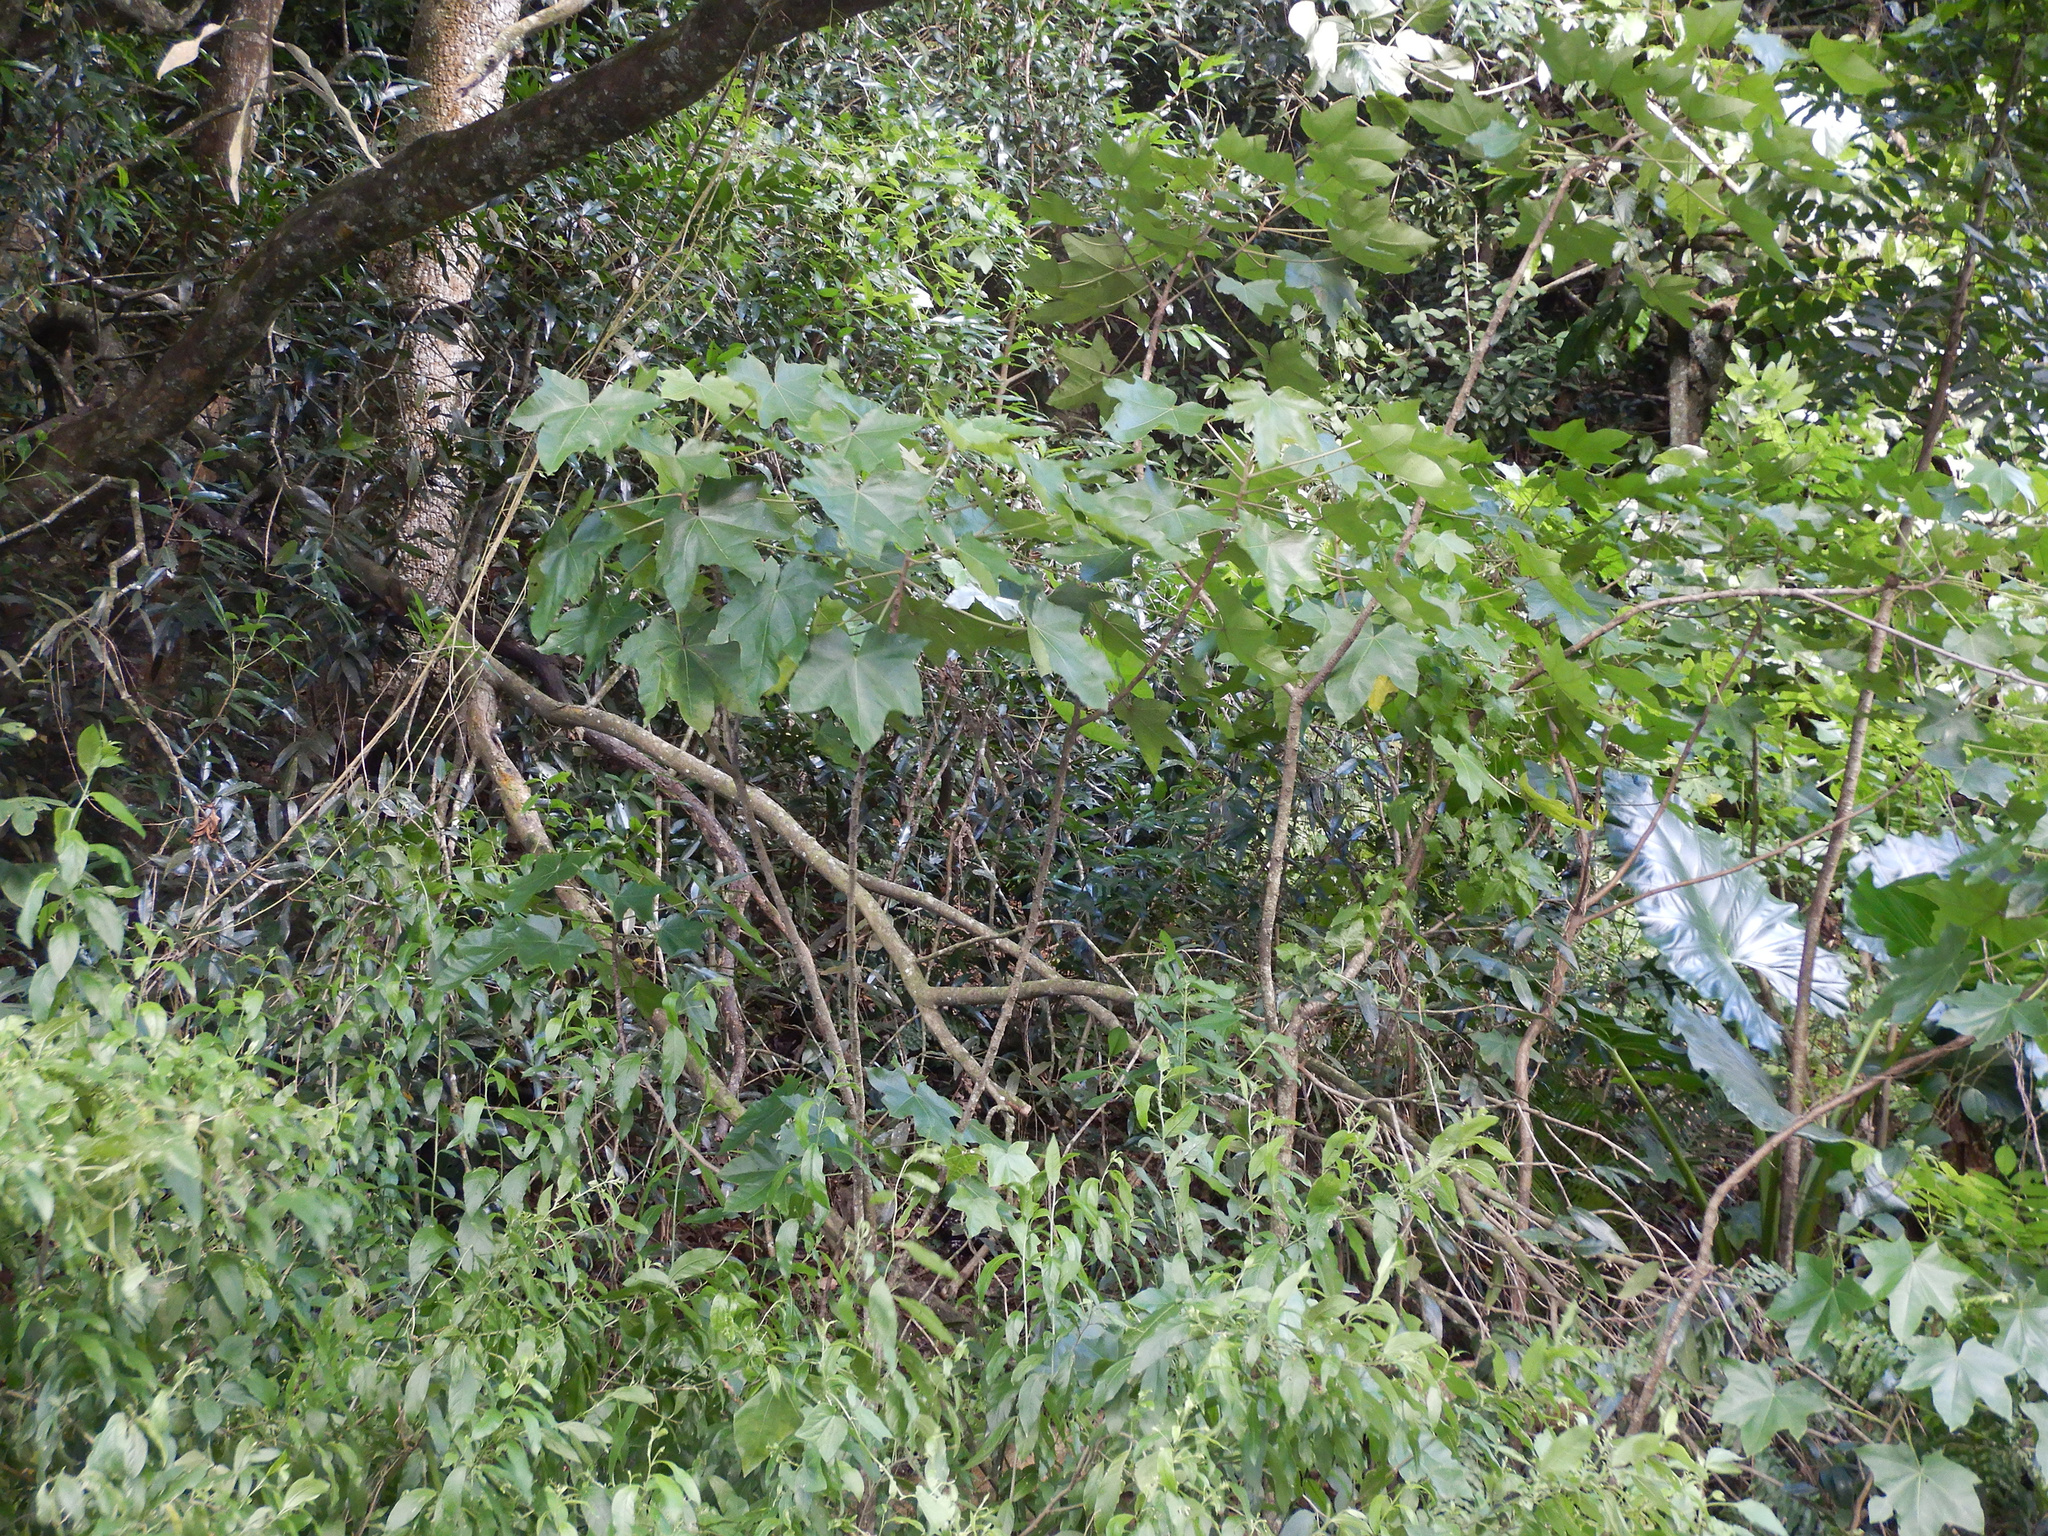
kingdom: Plantae
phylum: Tracheophyta
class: Magnoliopsida
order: Malpighiales
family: Euphorbiaceae
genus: Aleurites
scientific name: Aleurites moluccanus
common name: Candlenut tree
